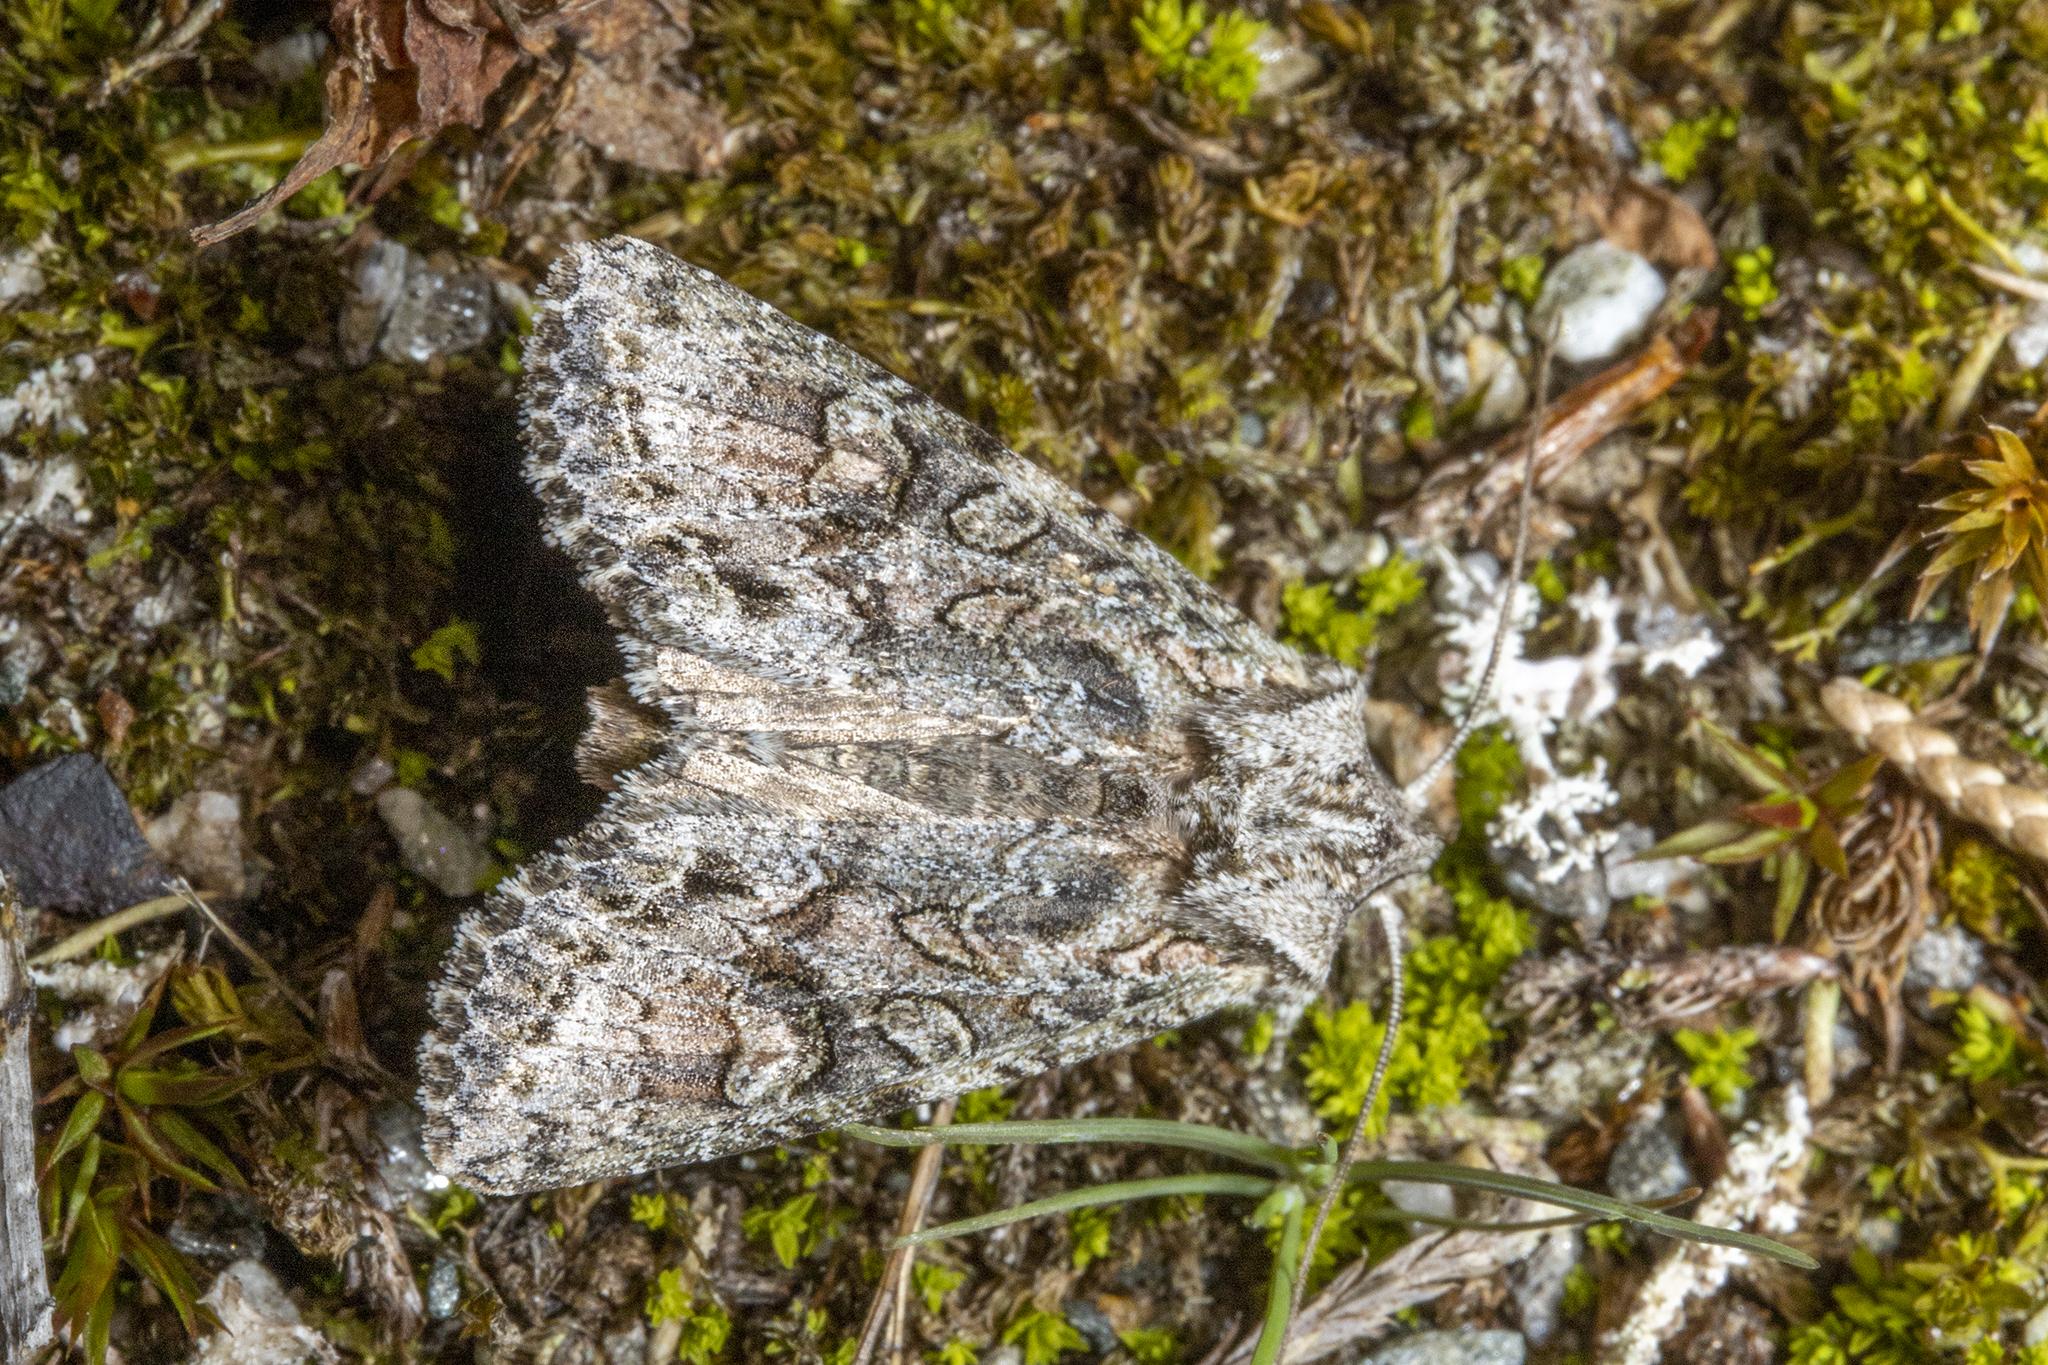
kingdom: Animalia
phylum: Arthropoda
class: Insecta
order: Lepidoptera
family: Noctuidae
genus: Ichneutica
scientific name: Ichneutica mutans
